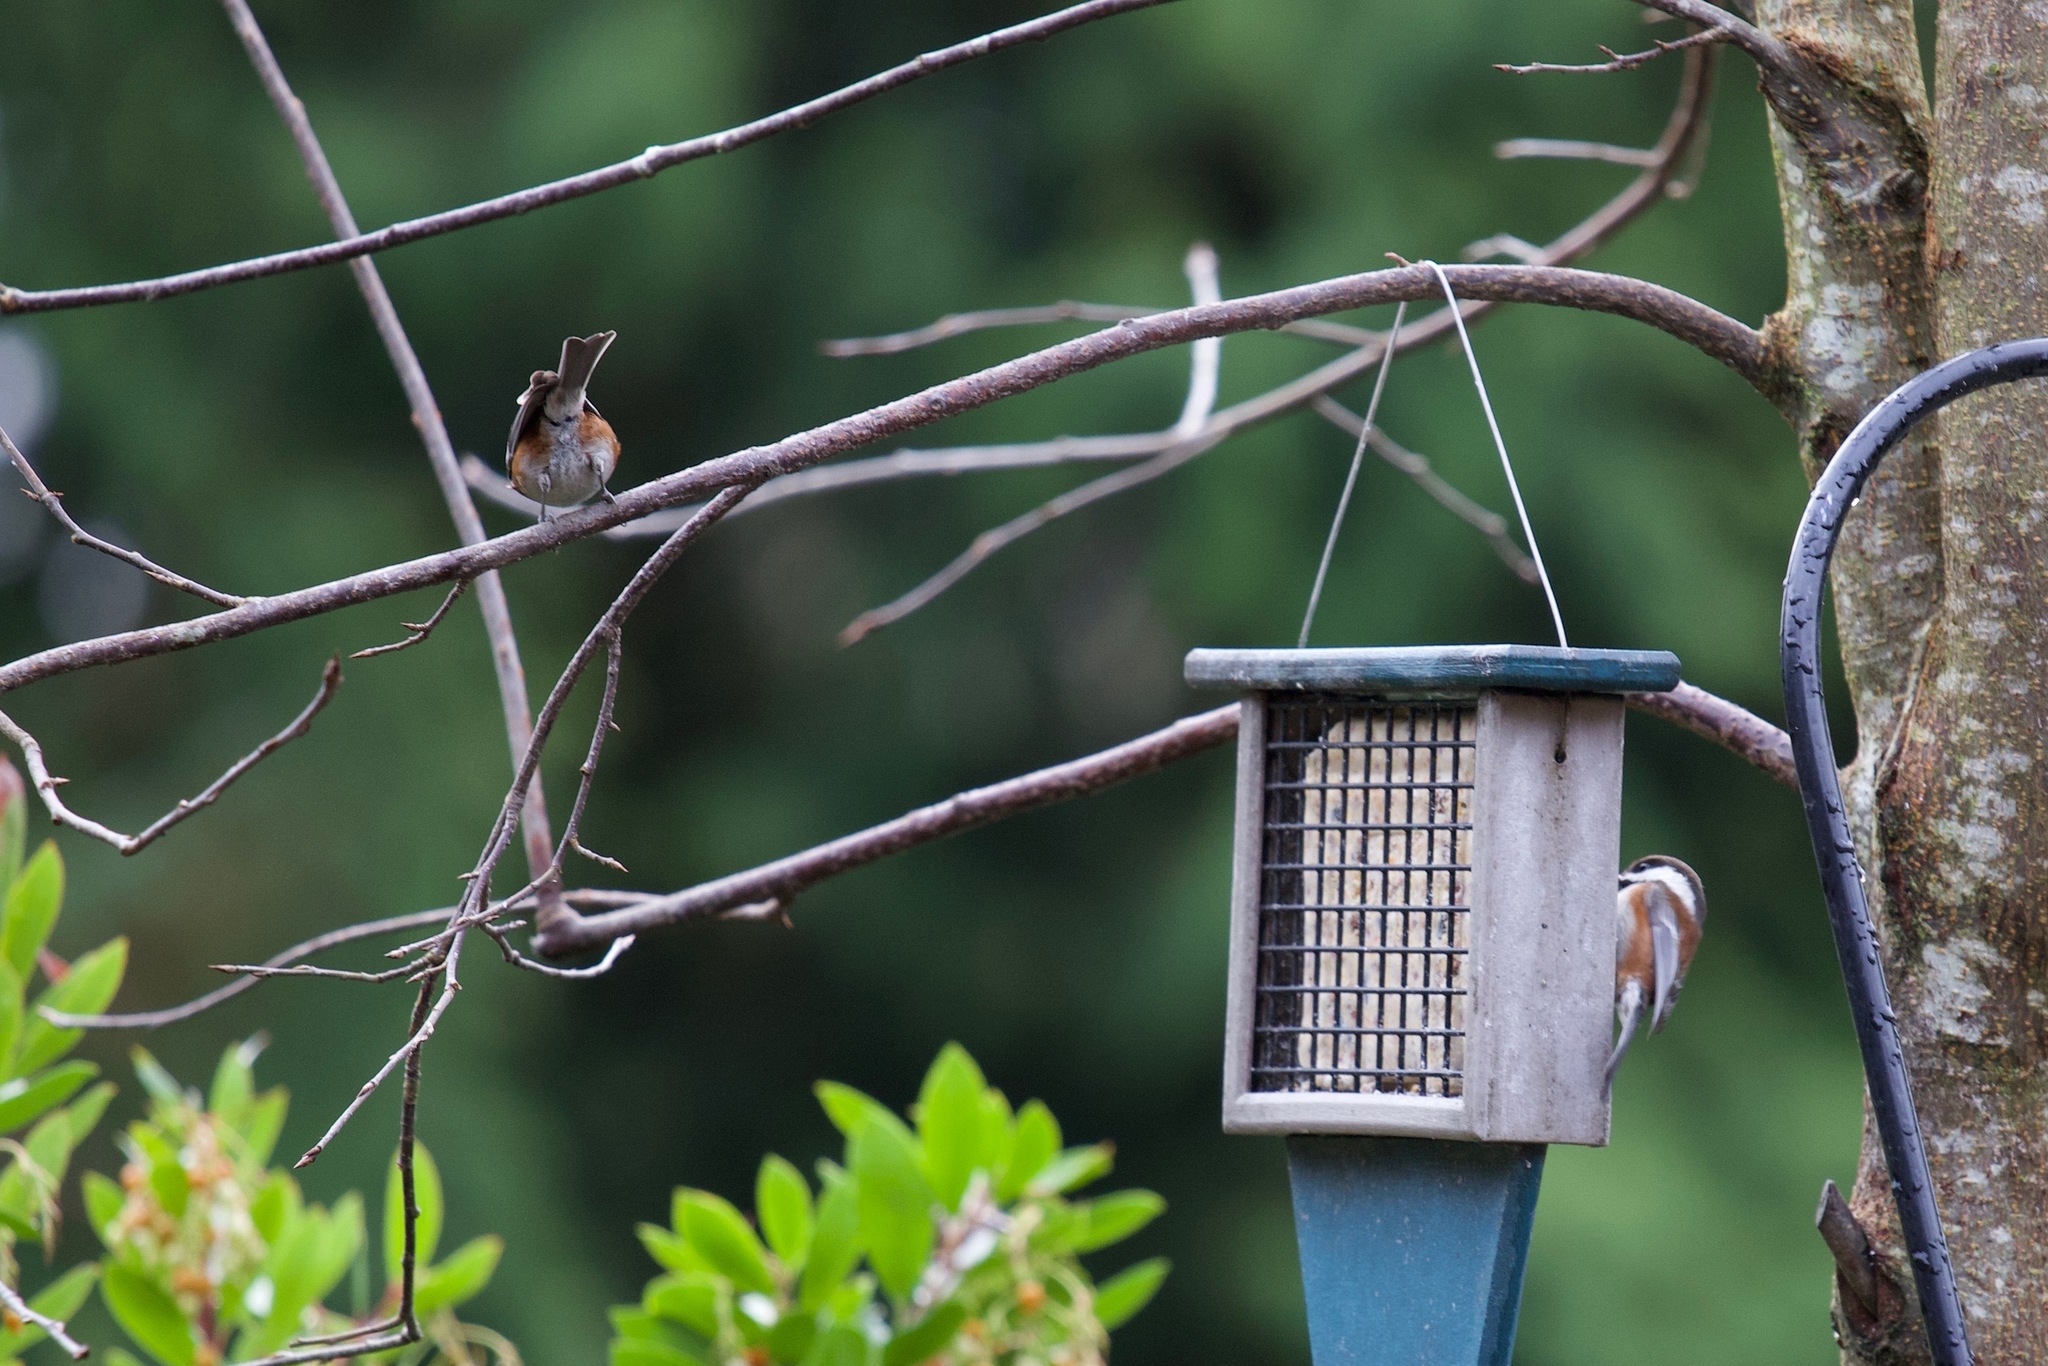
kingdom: Animalia
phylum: Chordata
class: Aves
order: Passeriformes
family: Paridae
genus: Poecile
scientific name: Poecile rufescens
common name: Chestnut-backed chickadee
